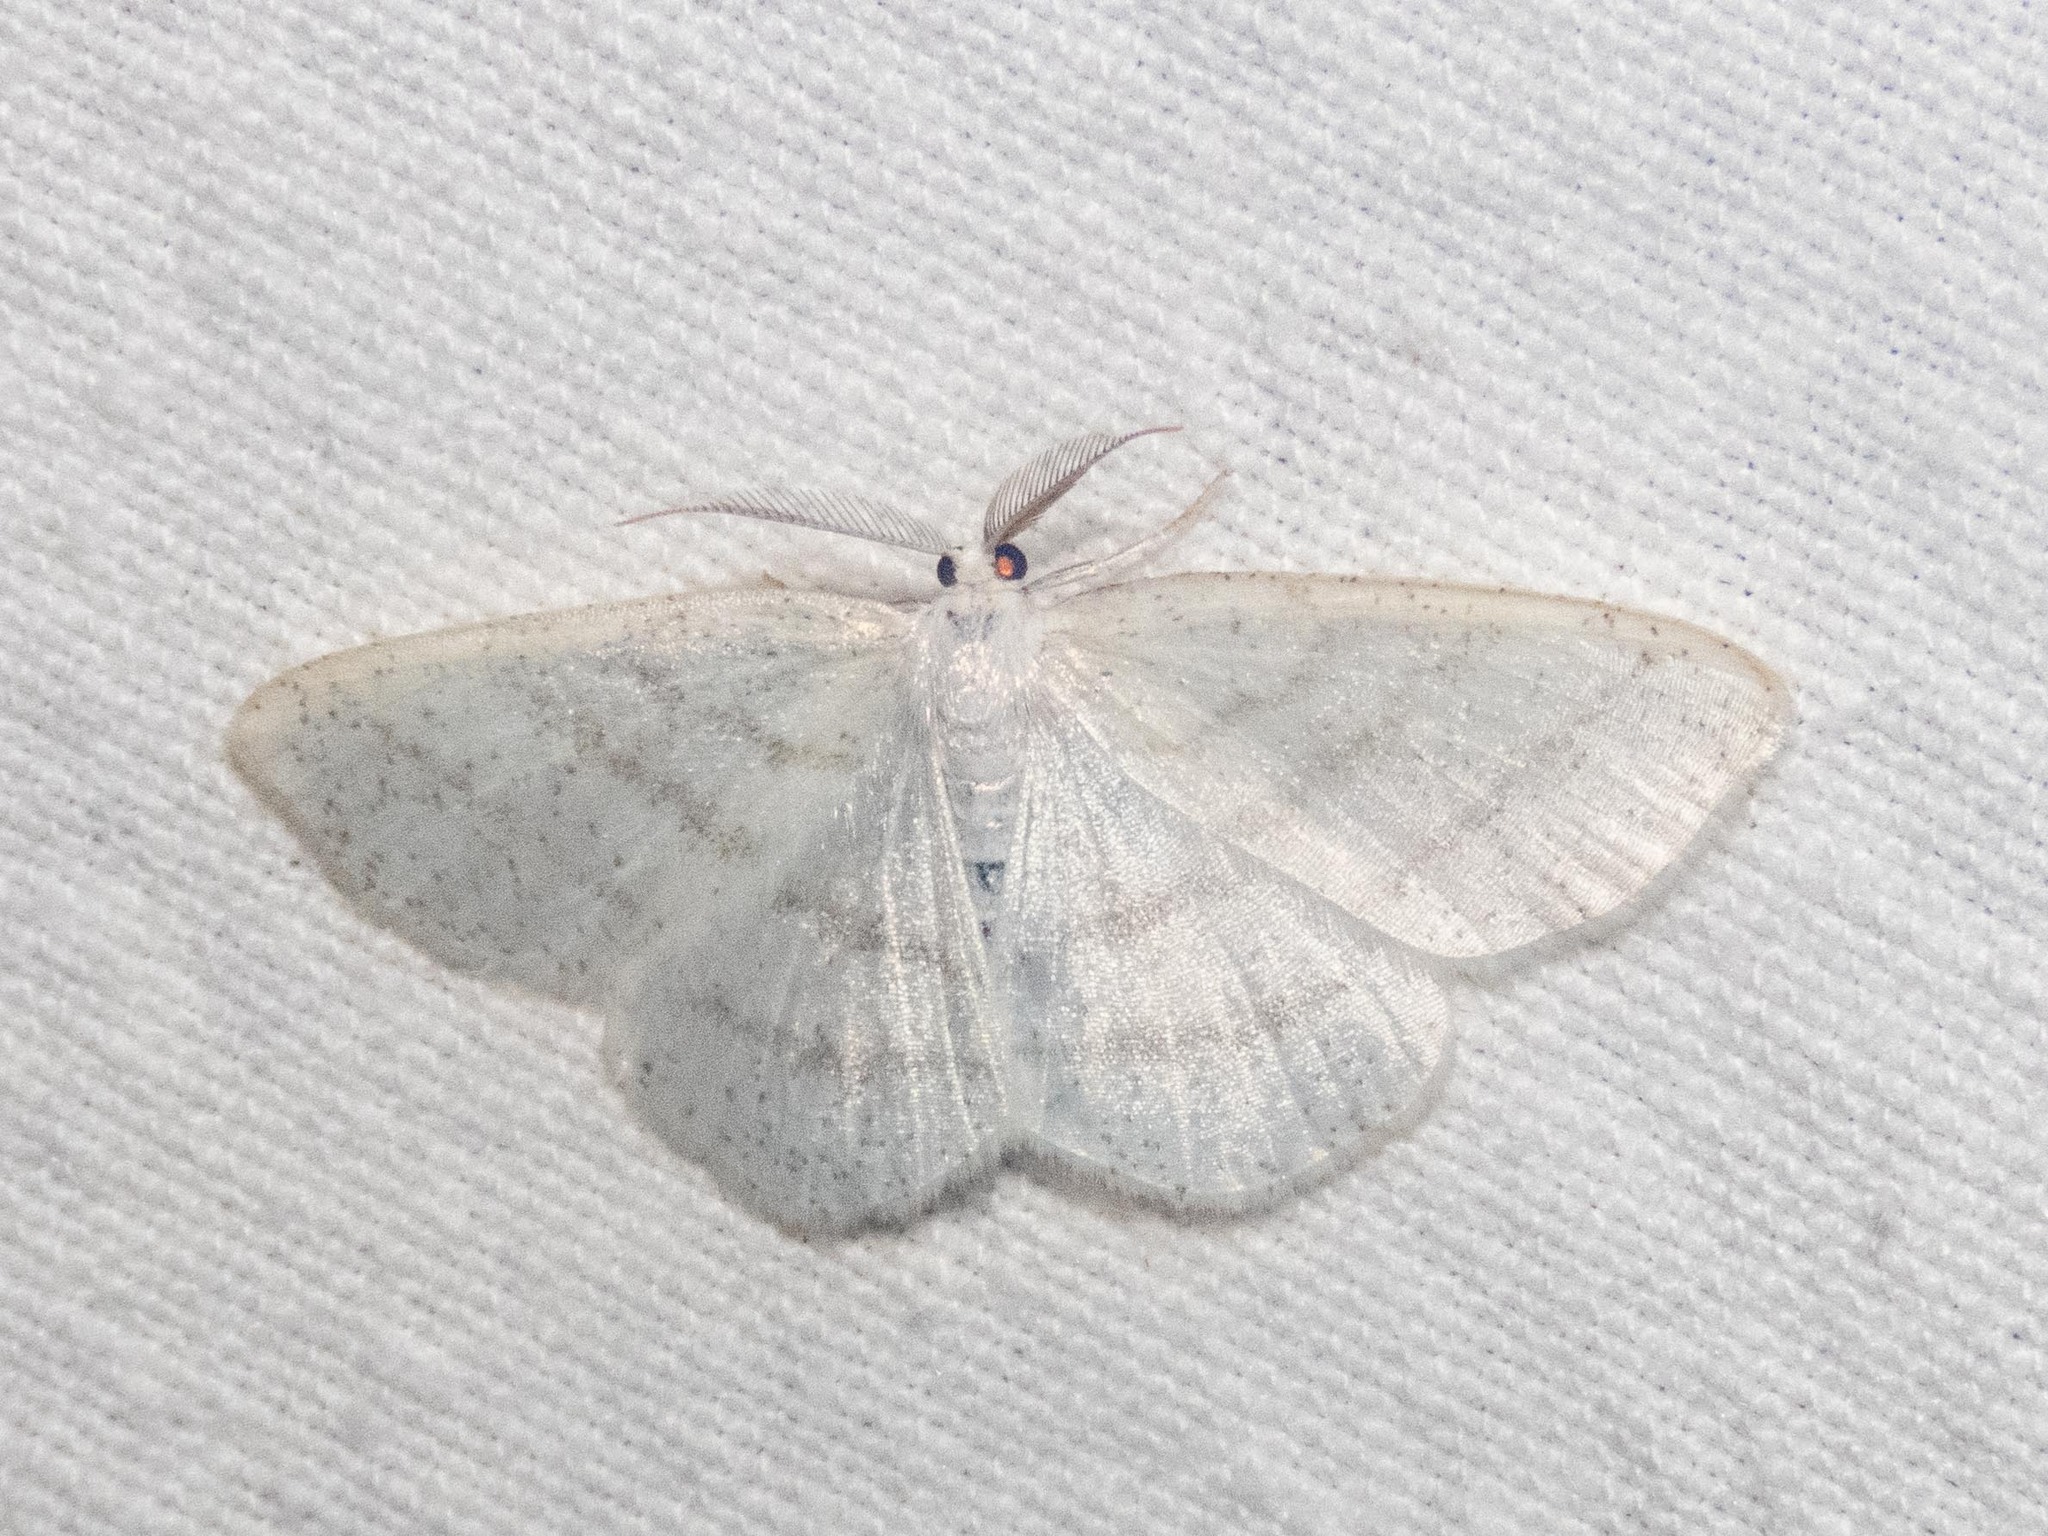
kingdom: Animalia
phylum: Arthropoda
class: Insecta
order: Lepidoptera
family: Geometridae
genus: Cabera
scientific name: Cabera pusaria
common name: Common white wave
